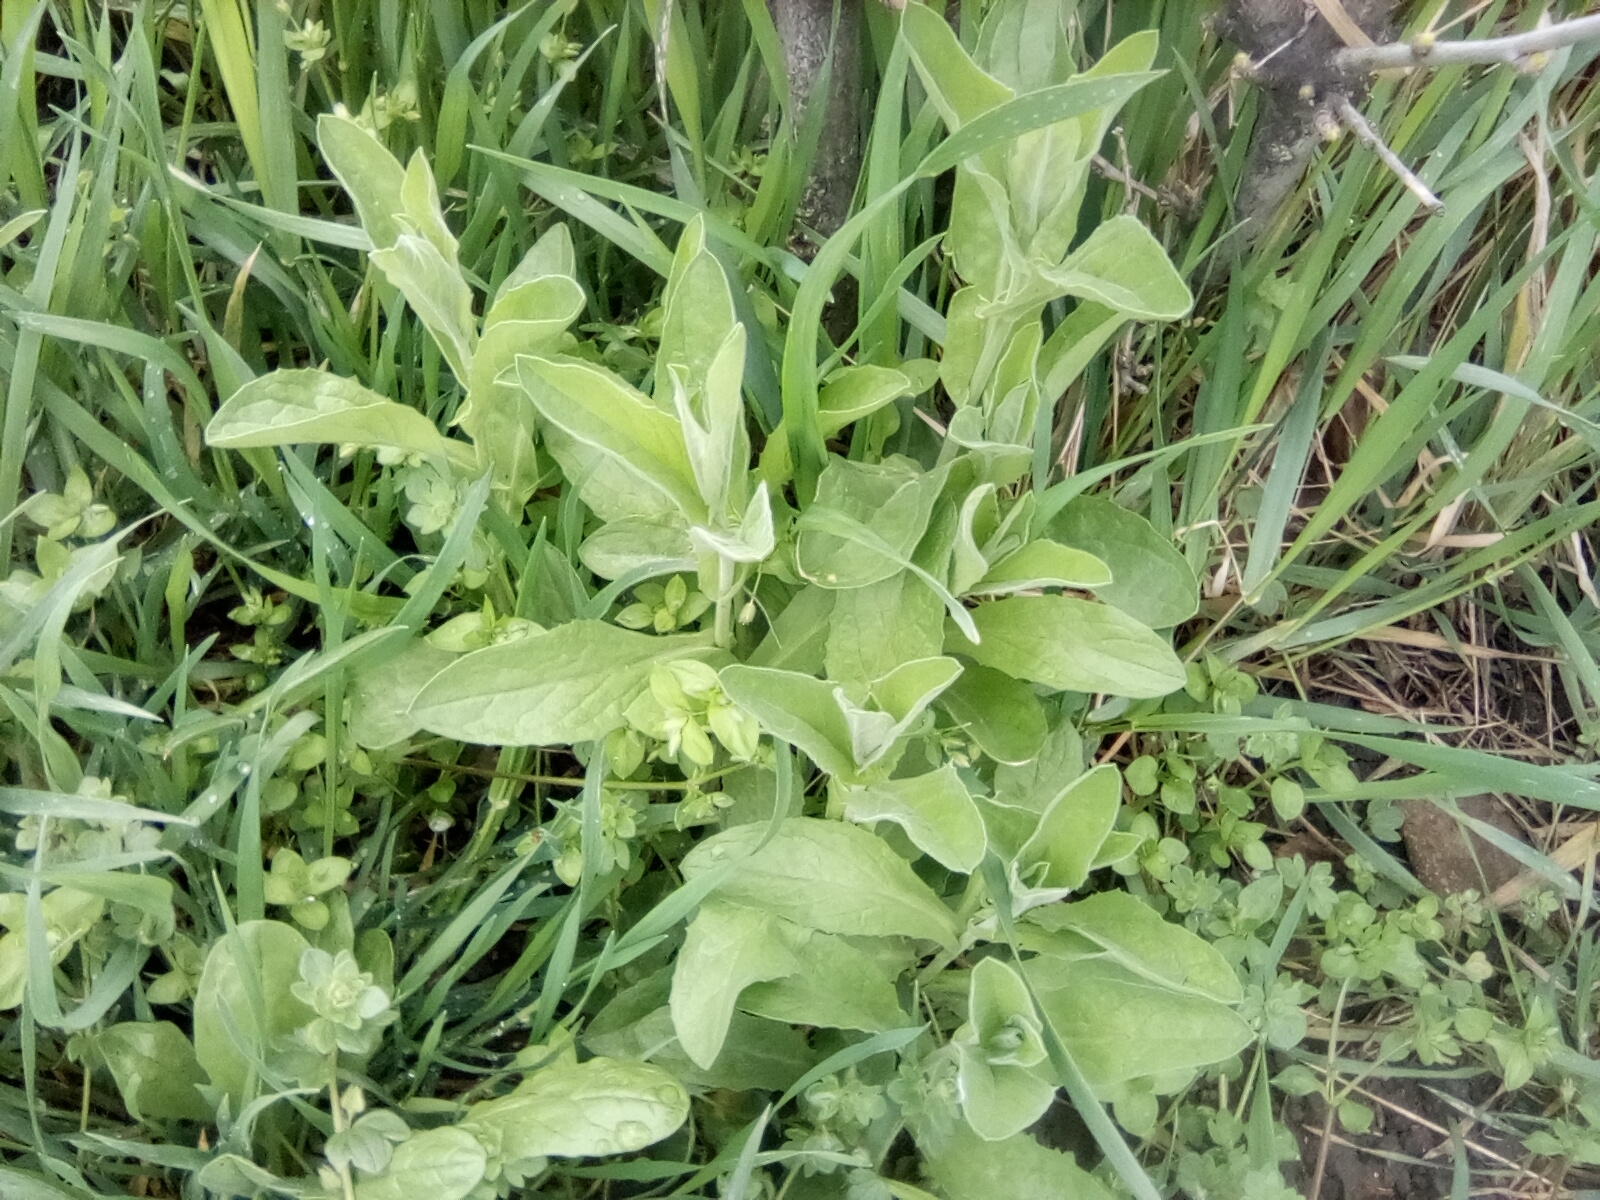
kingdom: Plantae
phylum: Tracheophyta
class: Magnoliopsida
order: Brassicales
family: Brassicaceae
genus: Lepidium
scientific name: Lepidium draba
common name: Hoary cress
